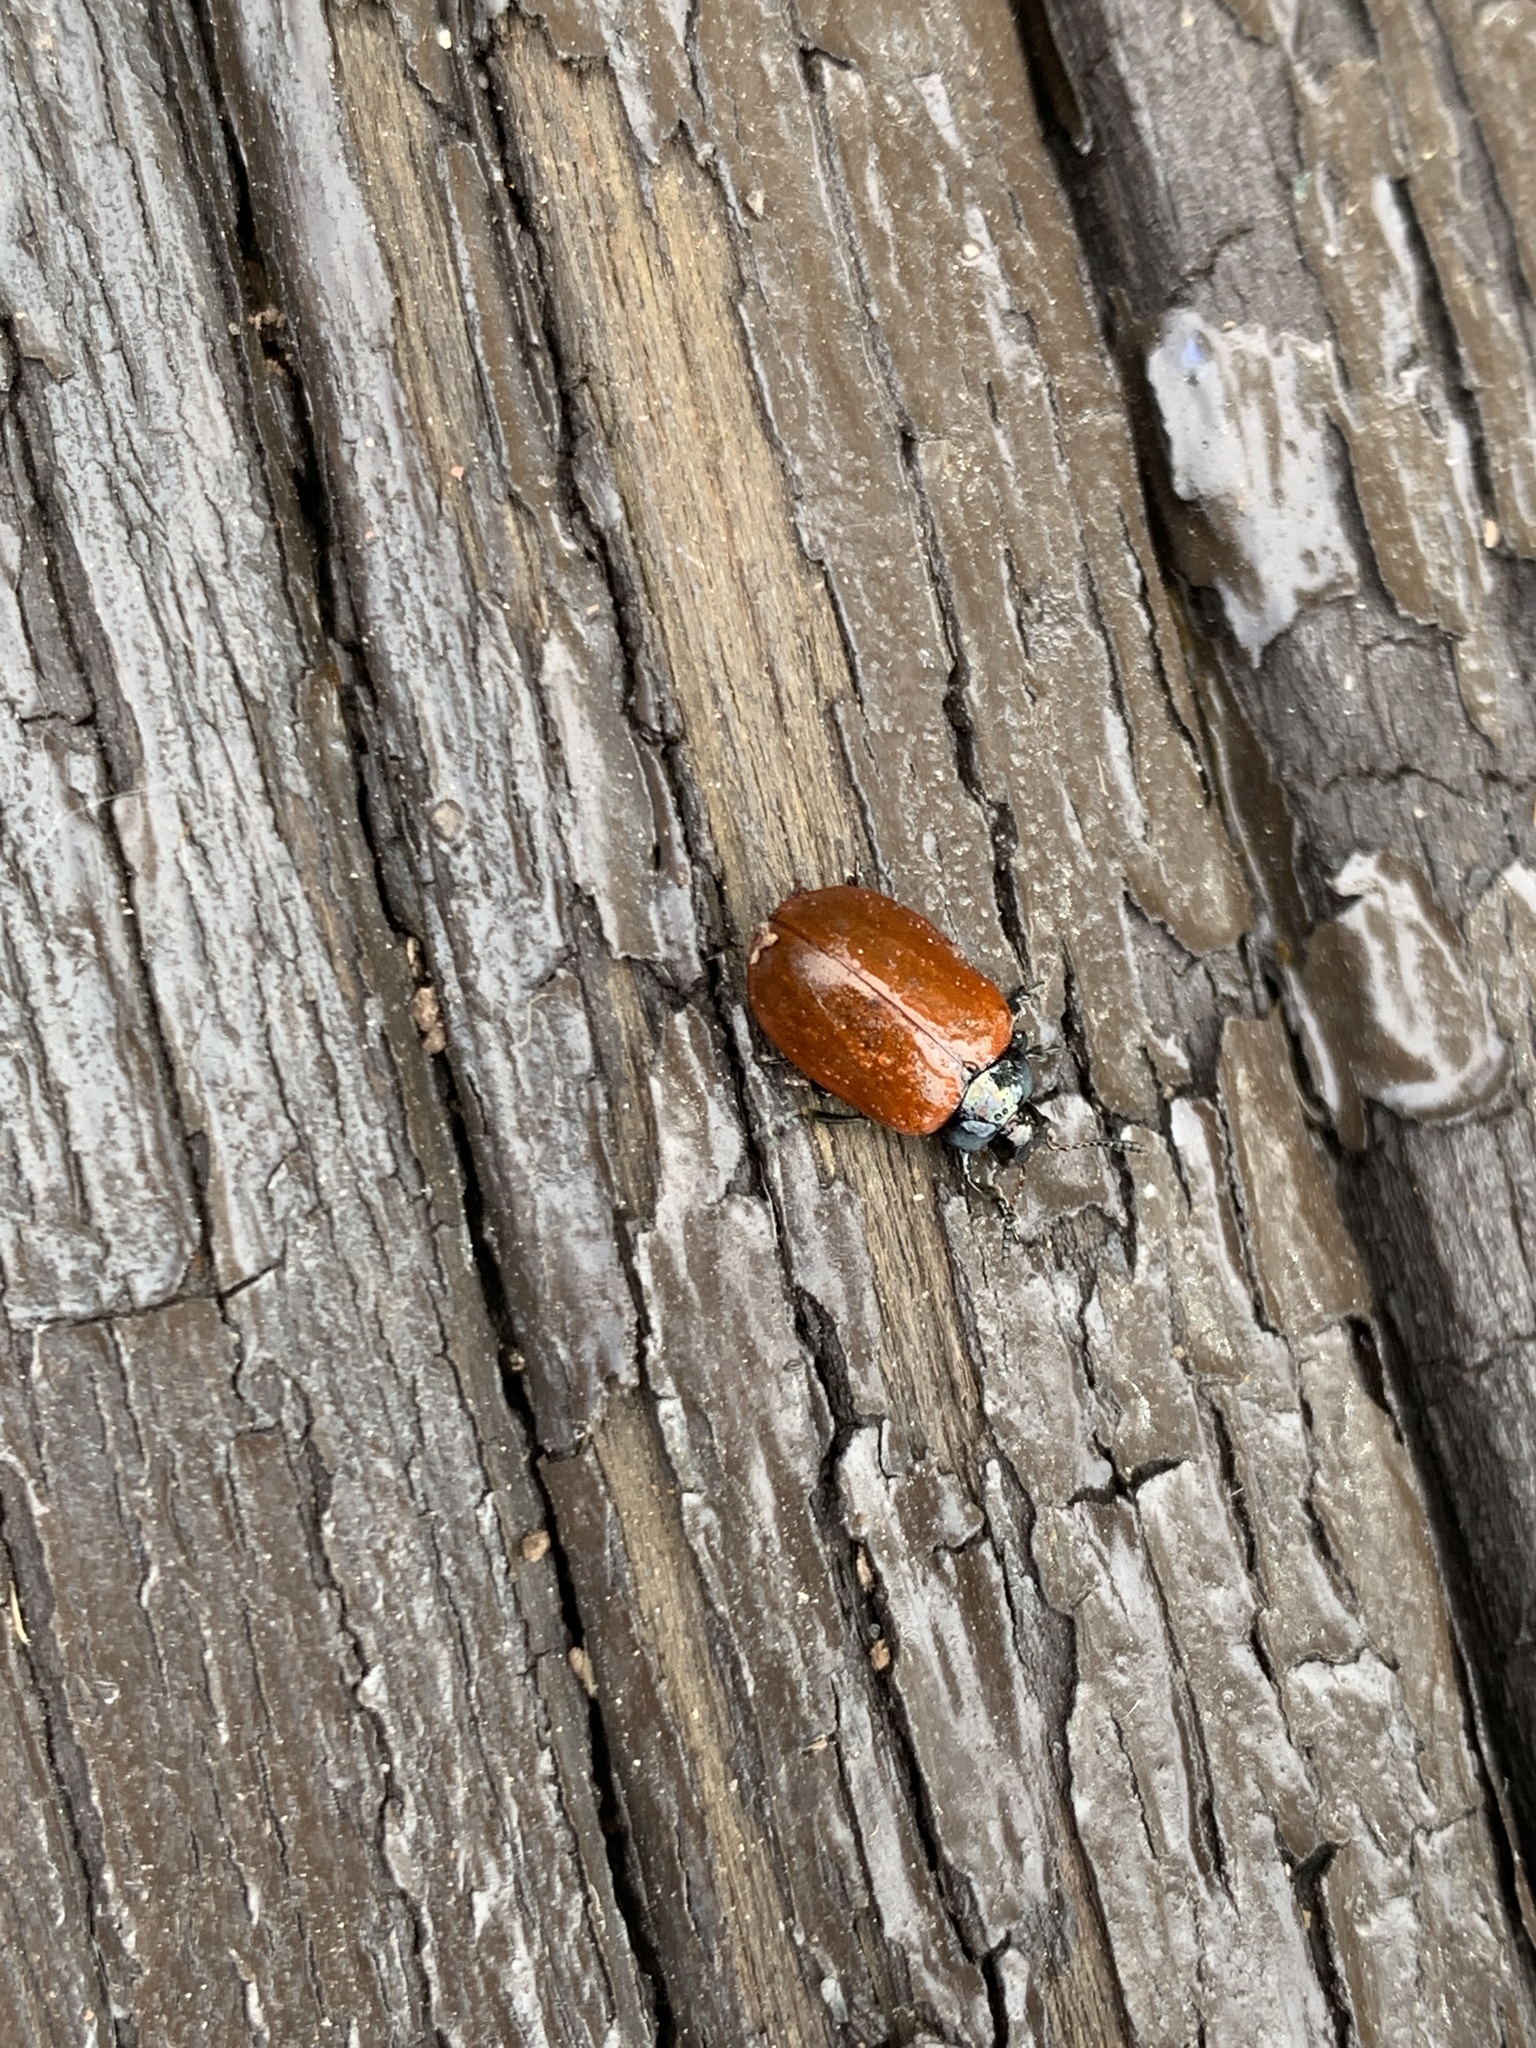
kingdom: Animalia
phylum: Arthropoda
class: Insecta
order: Coleoptera
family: Chrysomelidae
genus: Plagiodera
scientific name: Plagiodera
